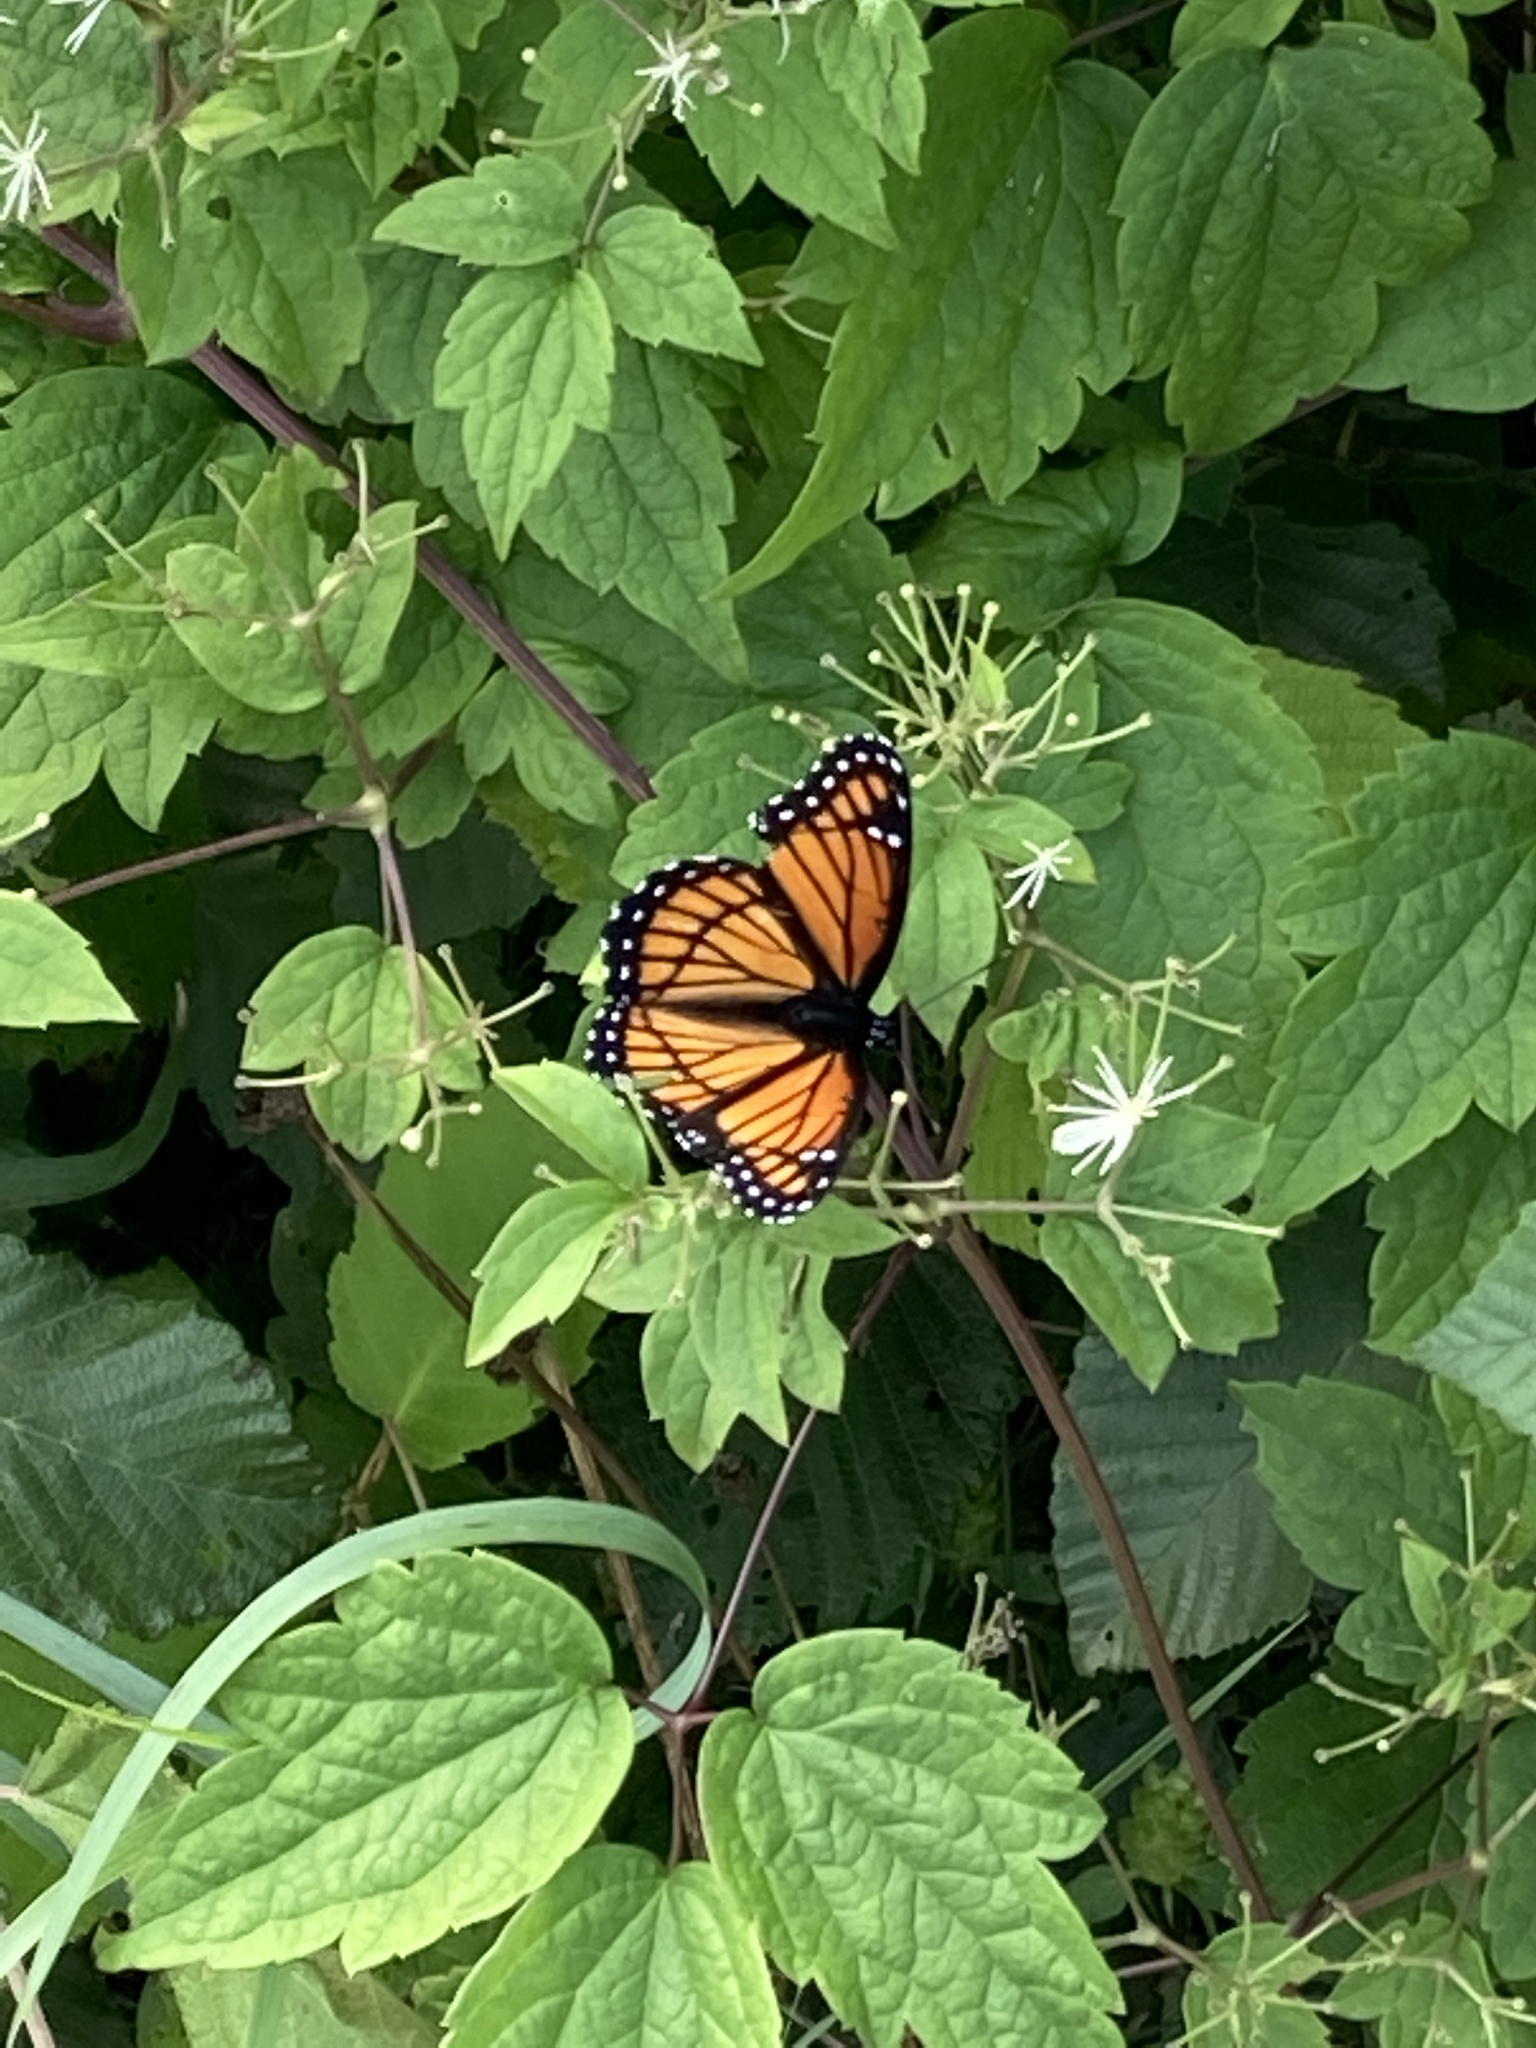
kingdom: Animalia
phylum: Arthropoda
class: Insecta
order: Lepidoptera
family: Nymphalidae
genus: Limenitis
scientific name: Limenitis archippus
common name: Viceroy
